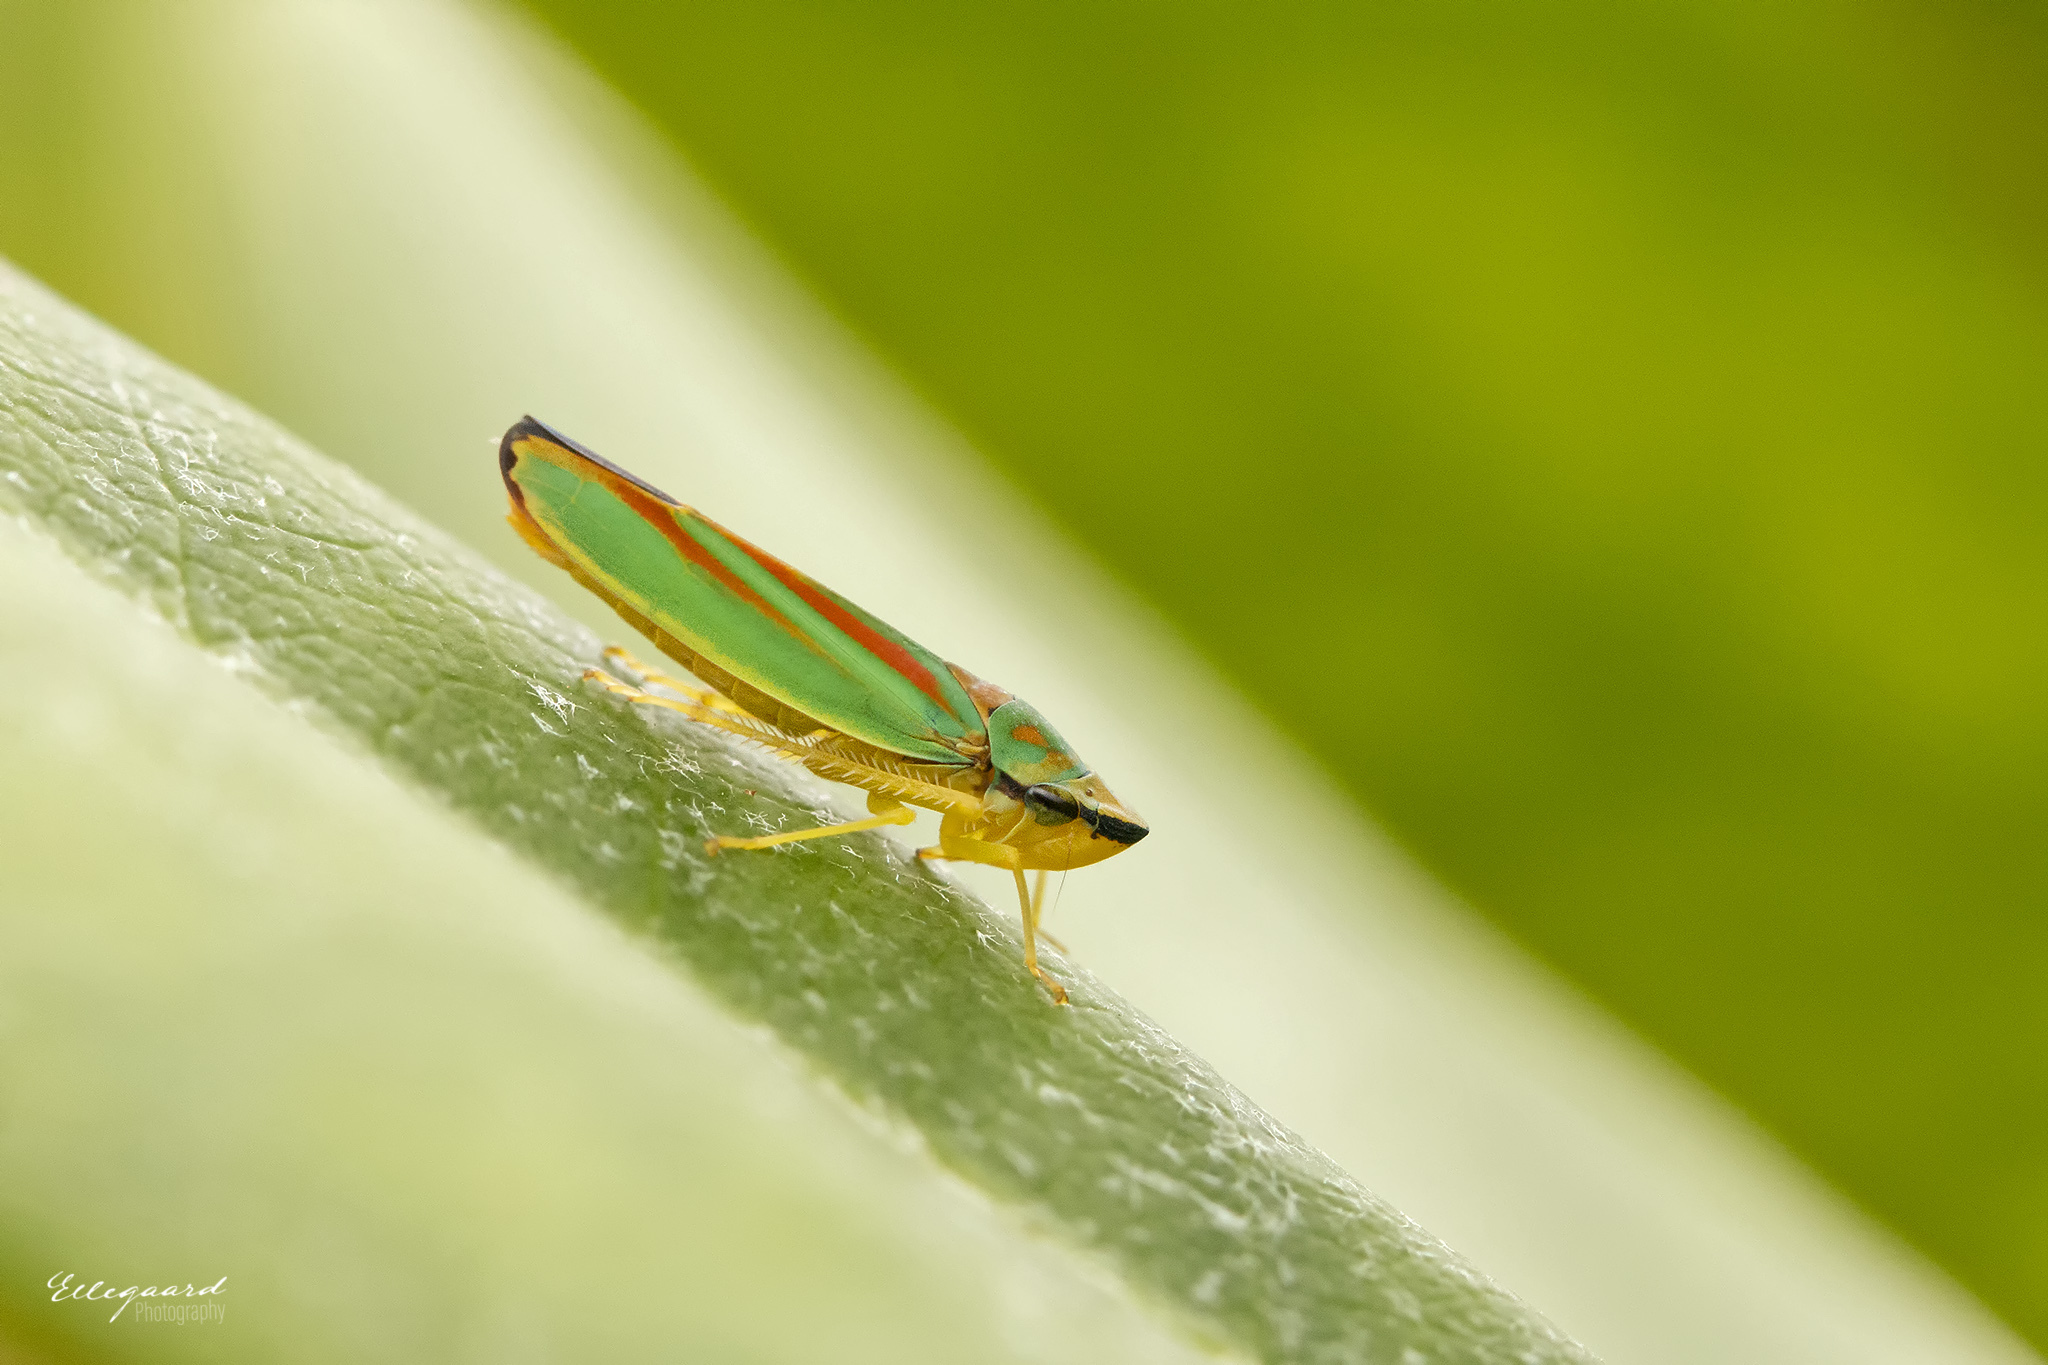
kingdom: Animalia
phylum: Arthropoda
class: Insecta
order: Hemiptera
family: Cicadellidae
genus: Graphocephala
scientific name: Graphocephala fennahi
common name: Rhododendron leafhopper
